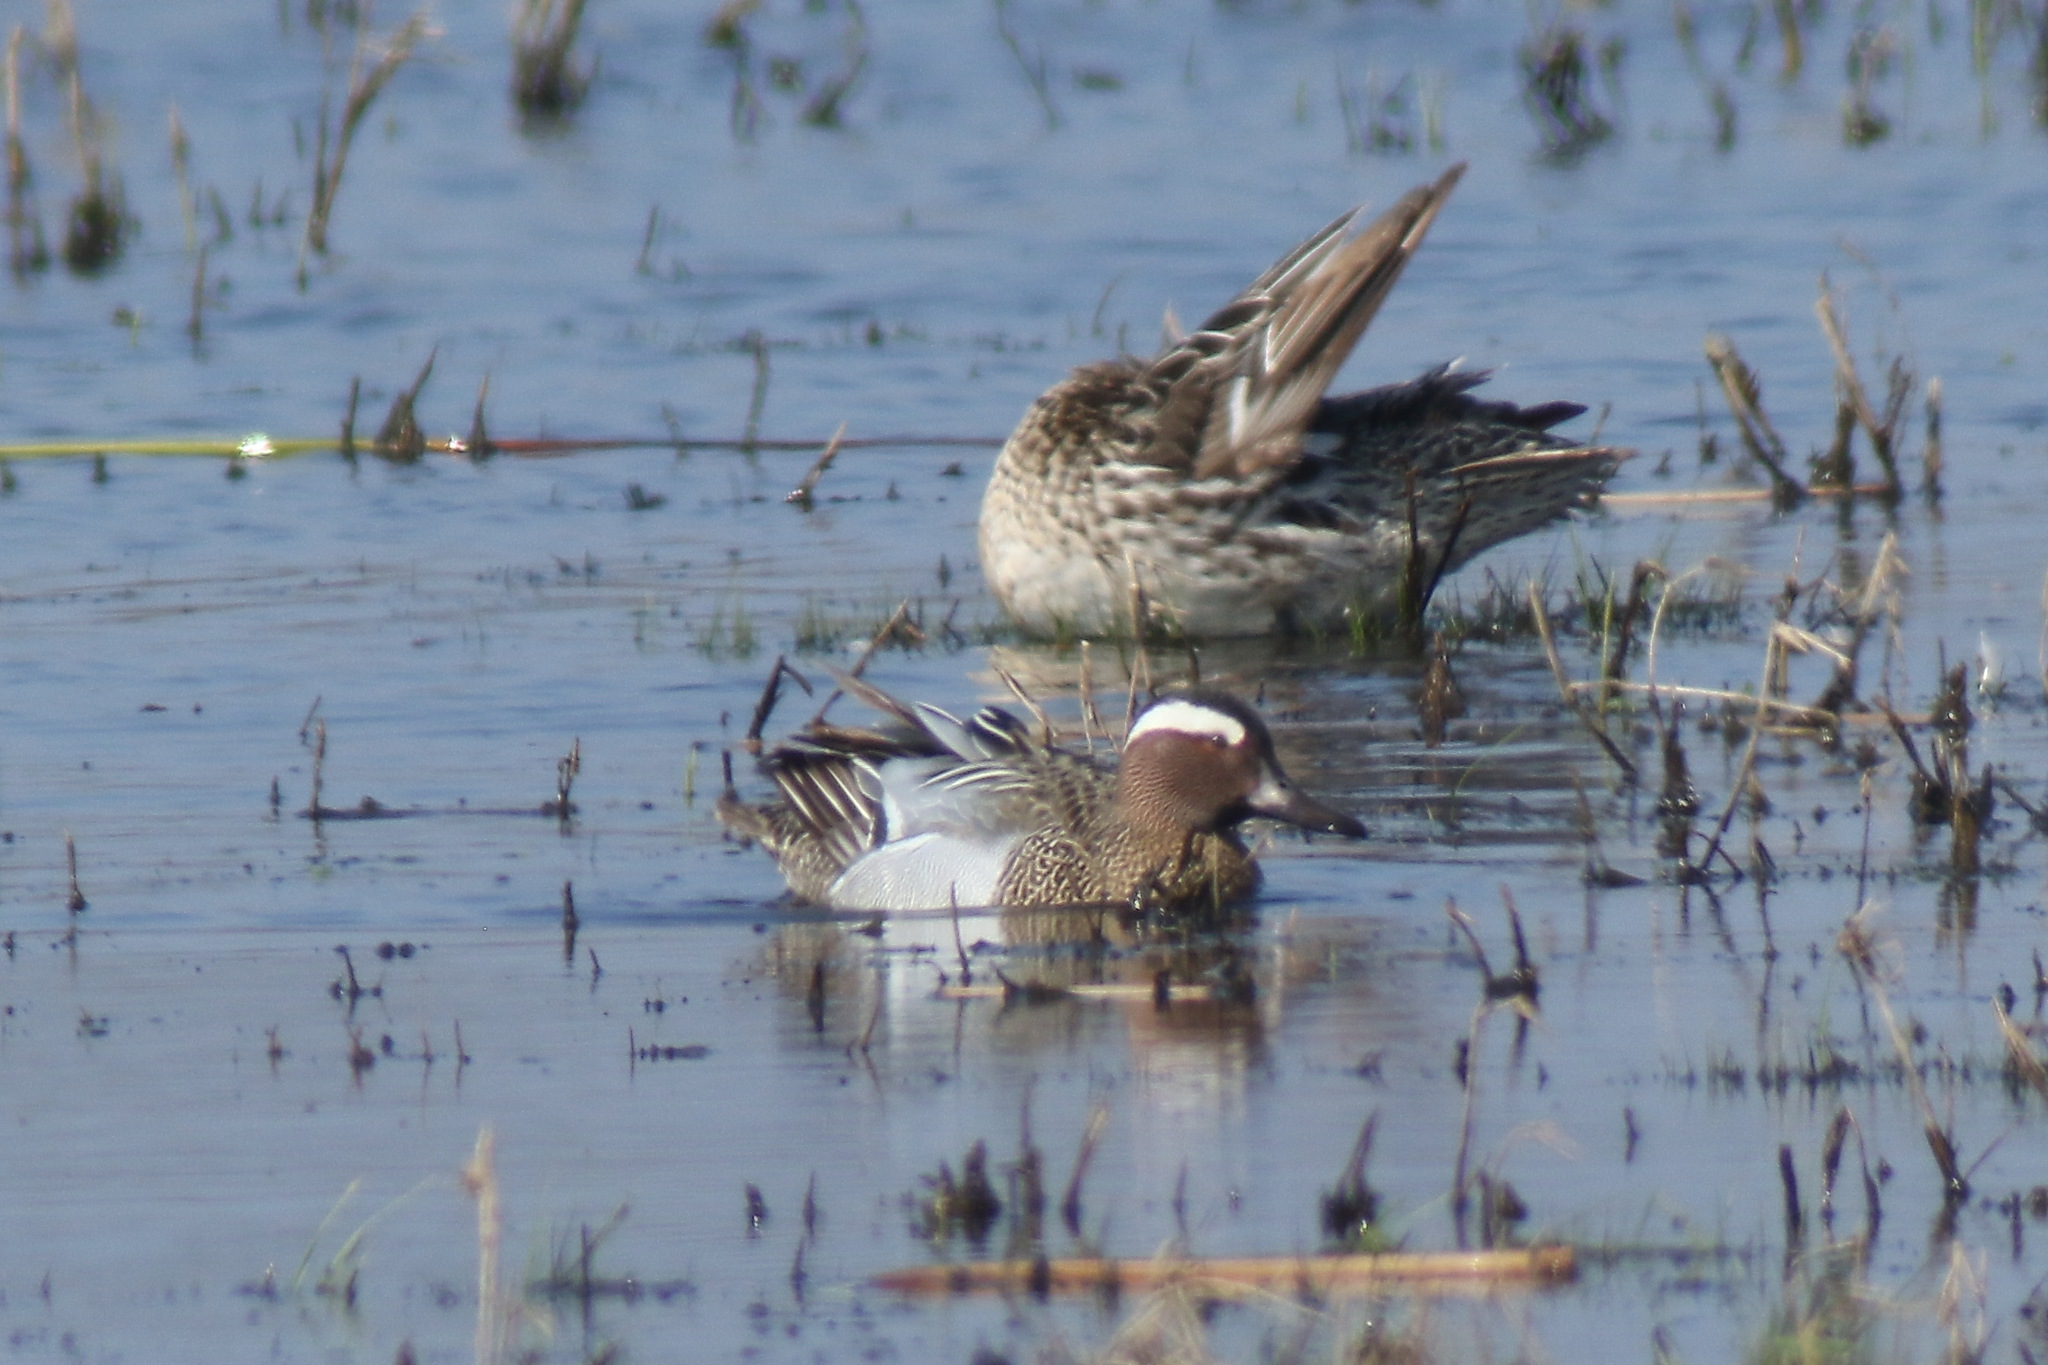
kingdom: Animalia
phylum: Chordata
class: Aves
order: Anseriformes
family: Anatidae
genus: Spatula
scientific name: Spatula querquedula
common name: Garganey
